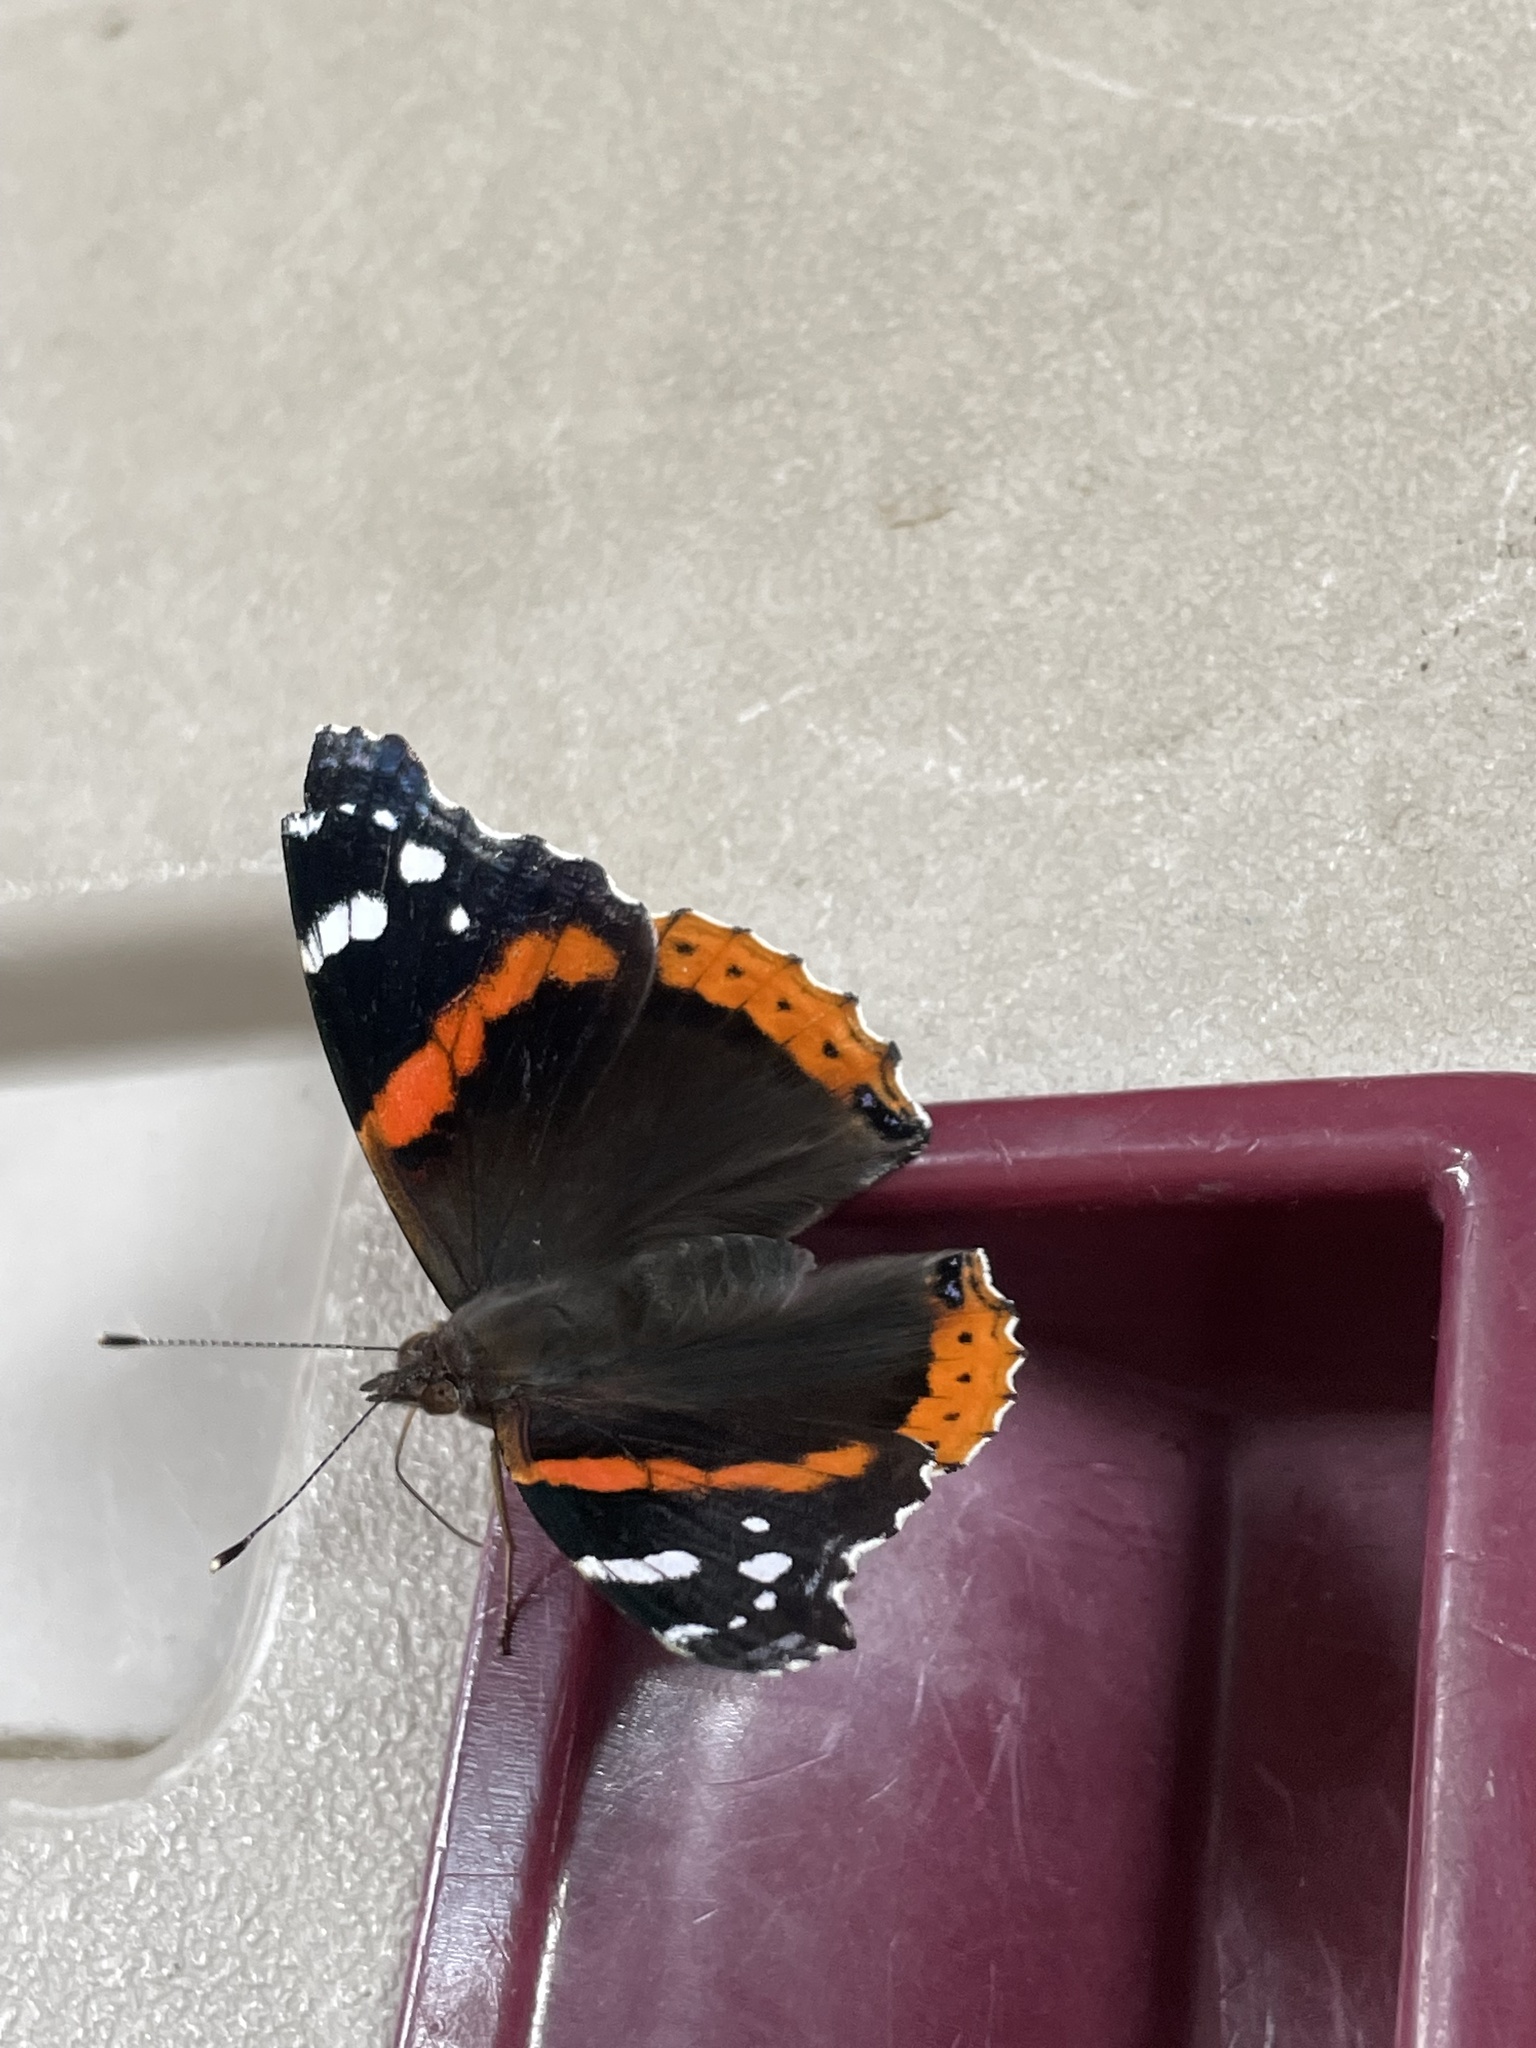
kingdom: Animalia
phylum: Arthropoda
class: Insecta
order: Lepidoptera
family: Nymphalidae
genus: Vanessa
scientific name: Vanessa atalanta
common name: Red admiral
